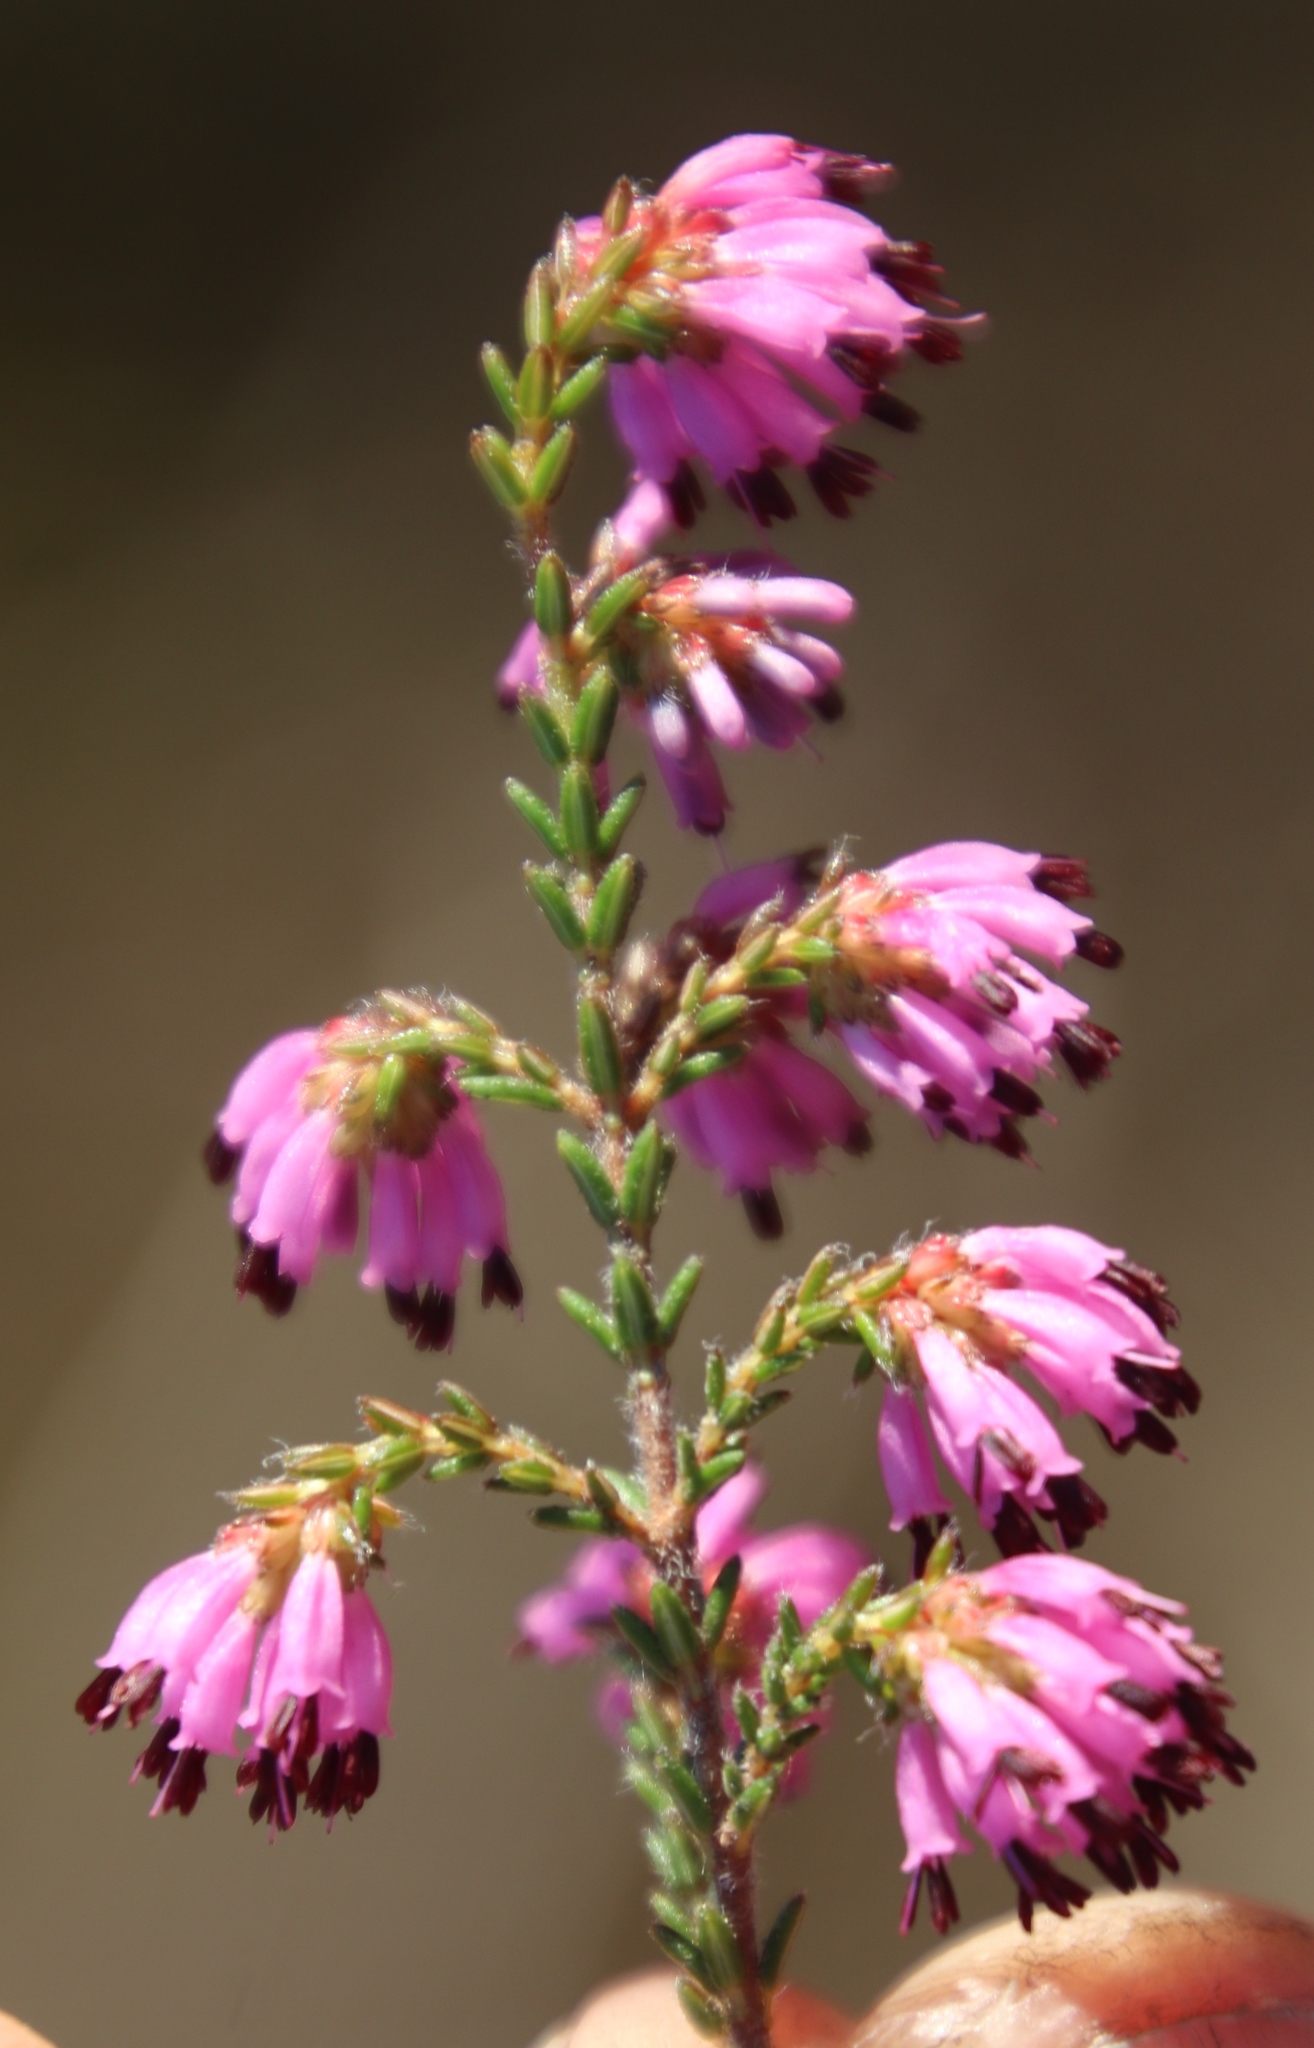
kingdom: Plantae
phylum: Tracheophyta
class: Magnoliopsida
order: Ericales
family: Ericaceae
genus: Erica
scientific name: Erica glabella
